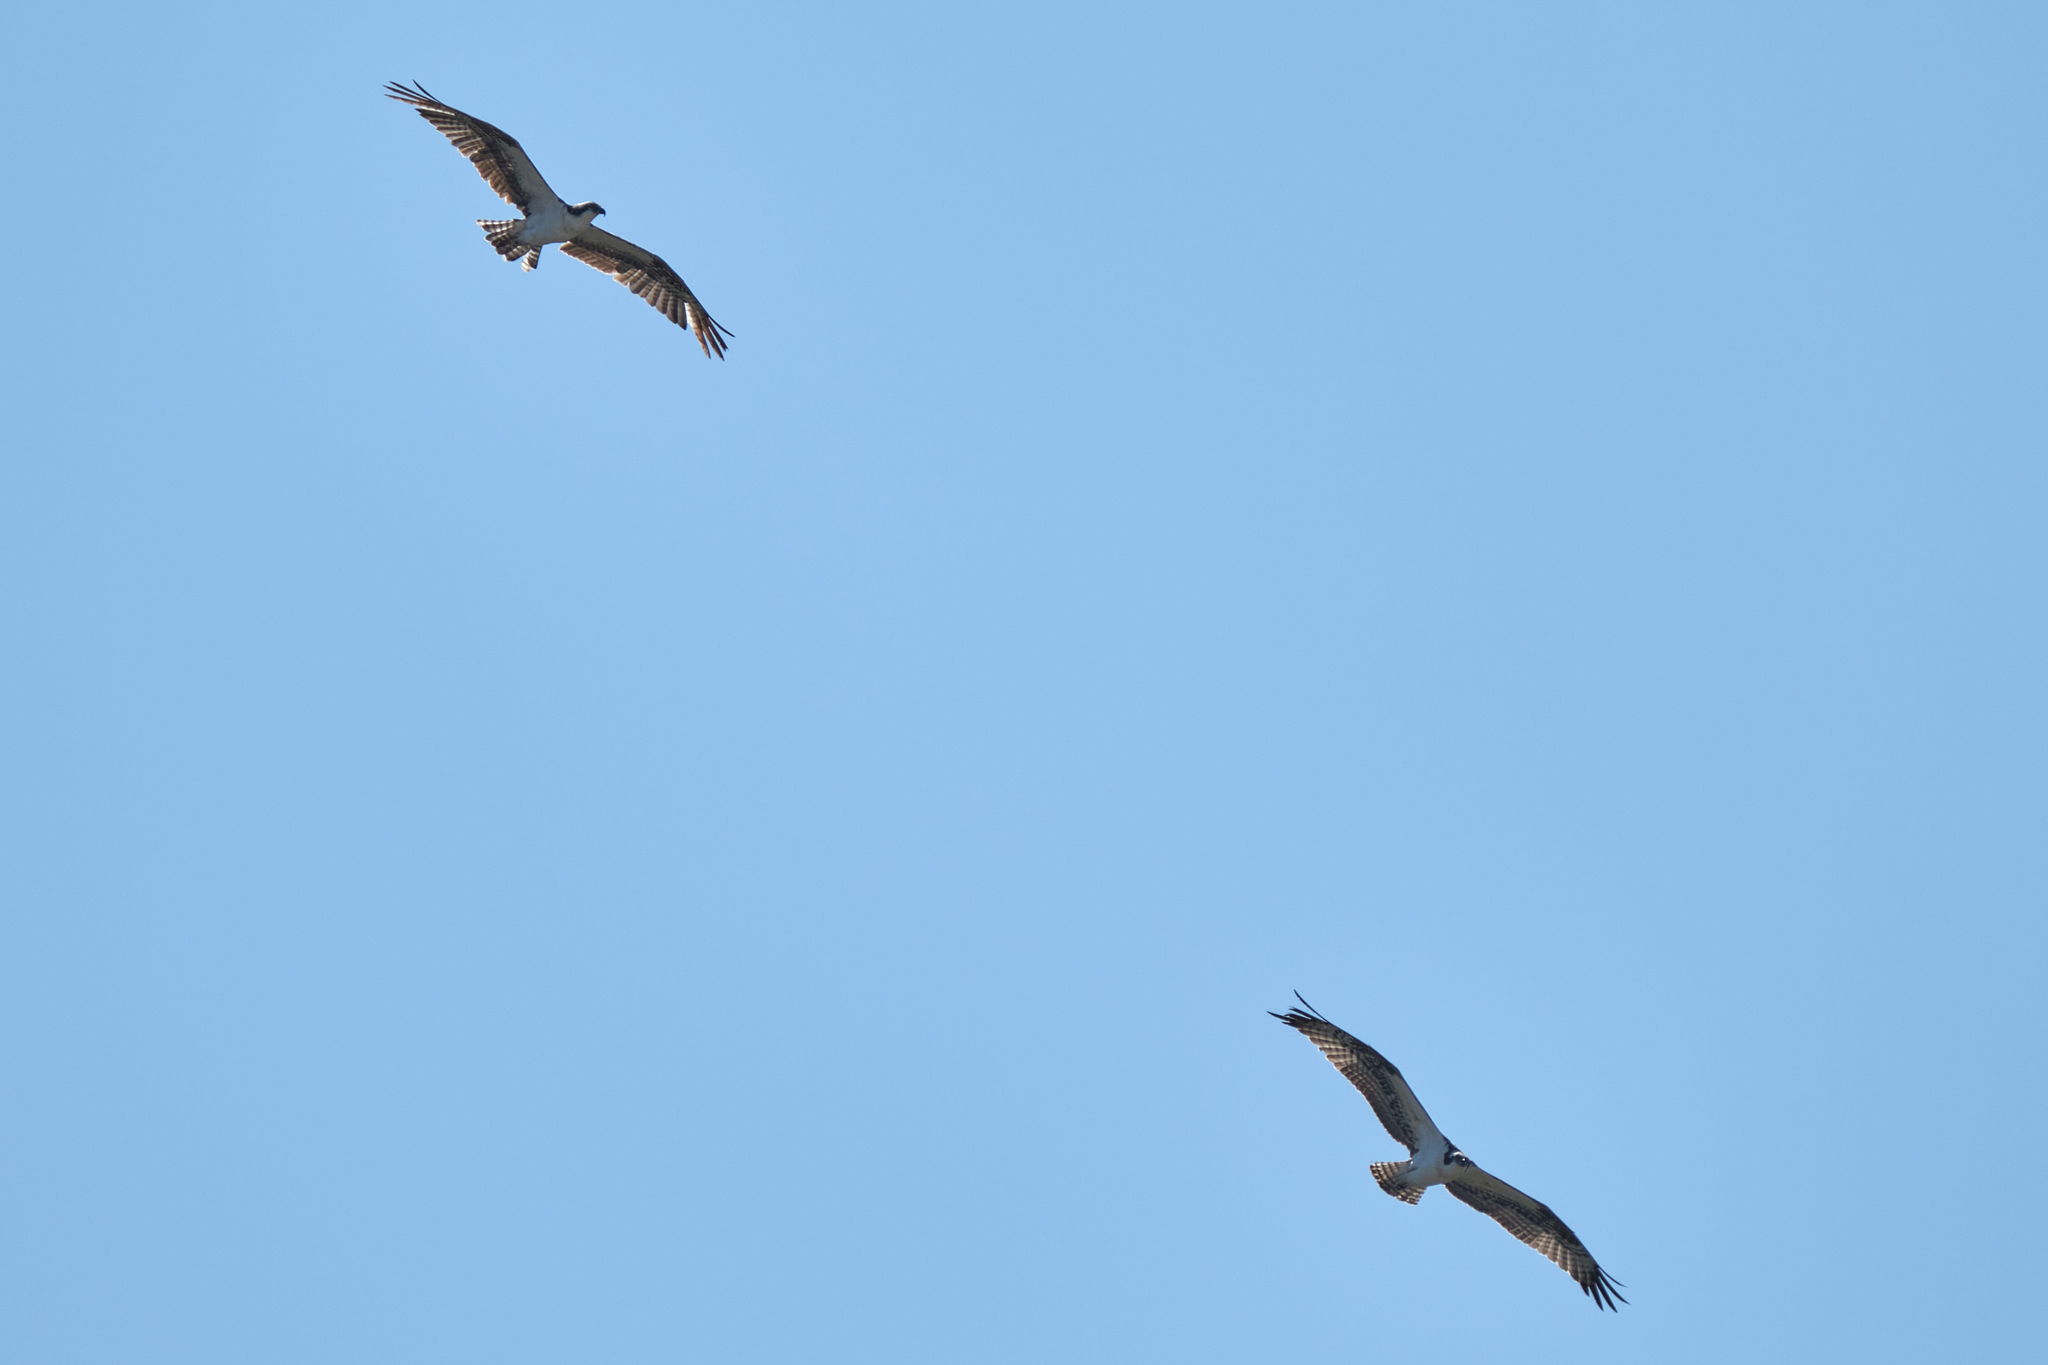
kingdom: Animalia
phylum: Chordata
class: Aves
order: Accipitriformes
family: Pandionidae
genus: Pandion
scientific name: Pandion haliaetus
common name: Osprey
